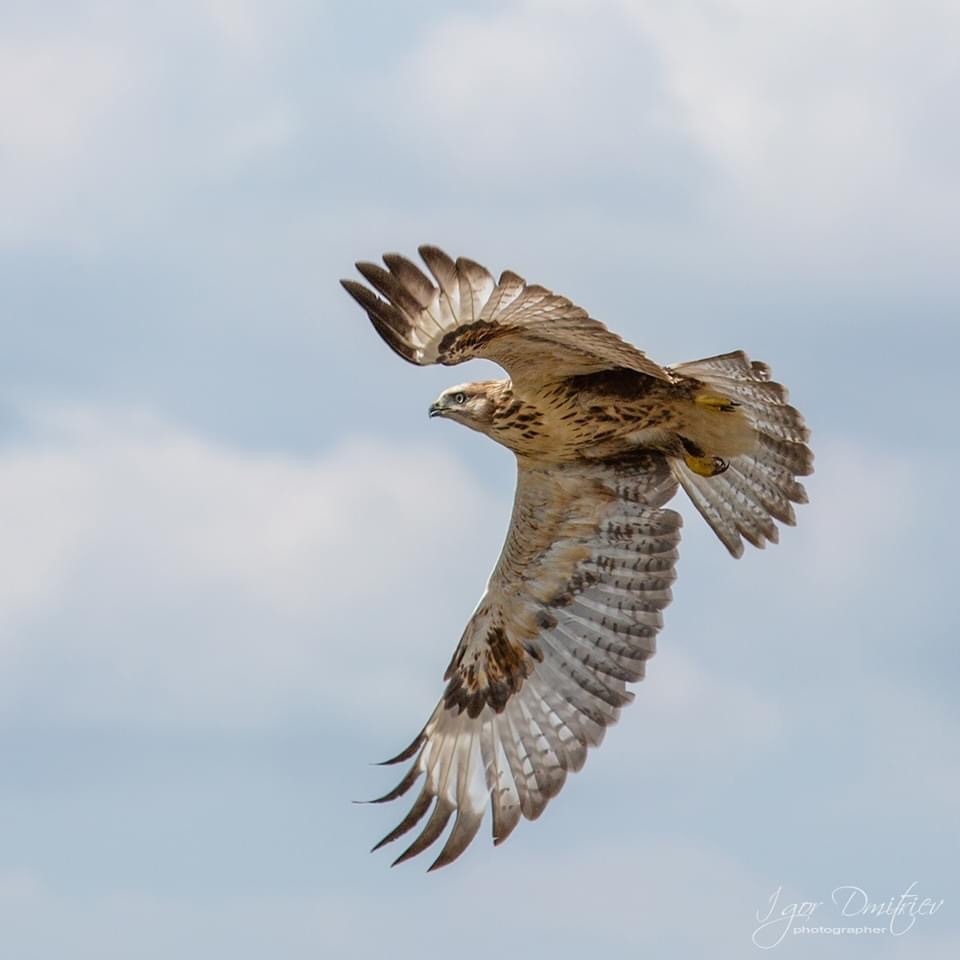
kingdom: Animalia
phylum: Chordata
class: Aves
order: Accipitriformes
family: Accipitridae
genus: Buteo
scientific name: Buteo hemilasius
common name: Upland buzzard
